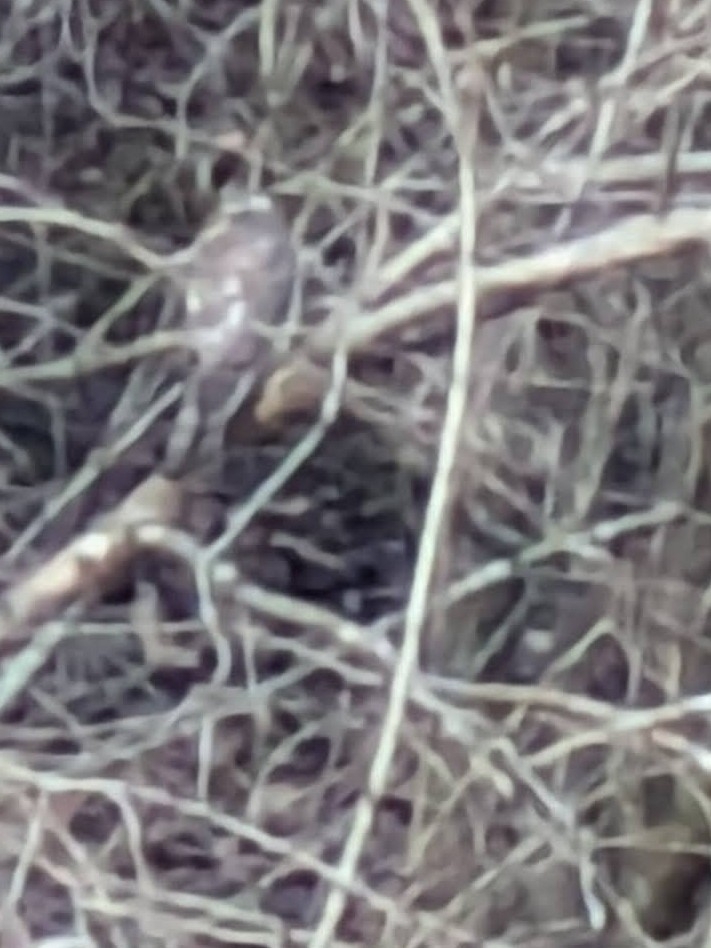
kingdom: Animalia
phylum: Chordata
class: Aves
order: Accipitriformes
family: Accipitridae
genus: Accipiter
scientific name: Accipiter nisus
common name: Eurasian sparrowhawk
